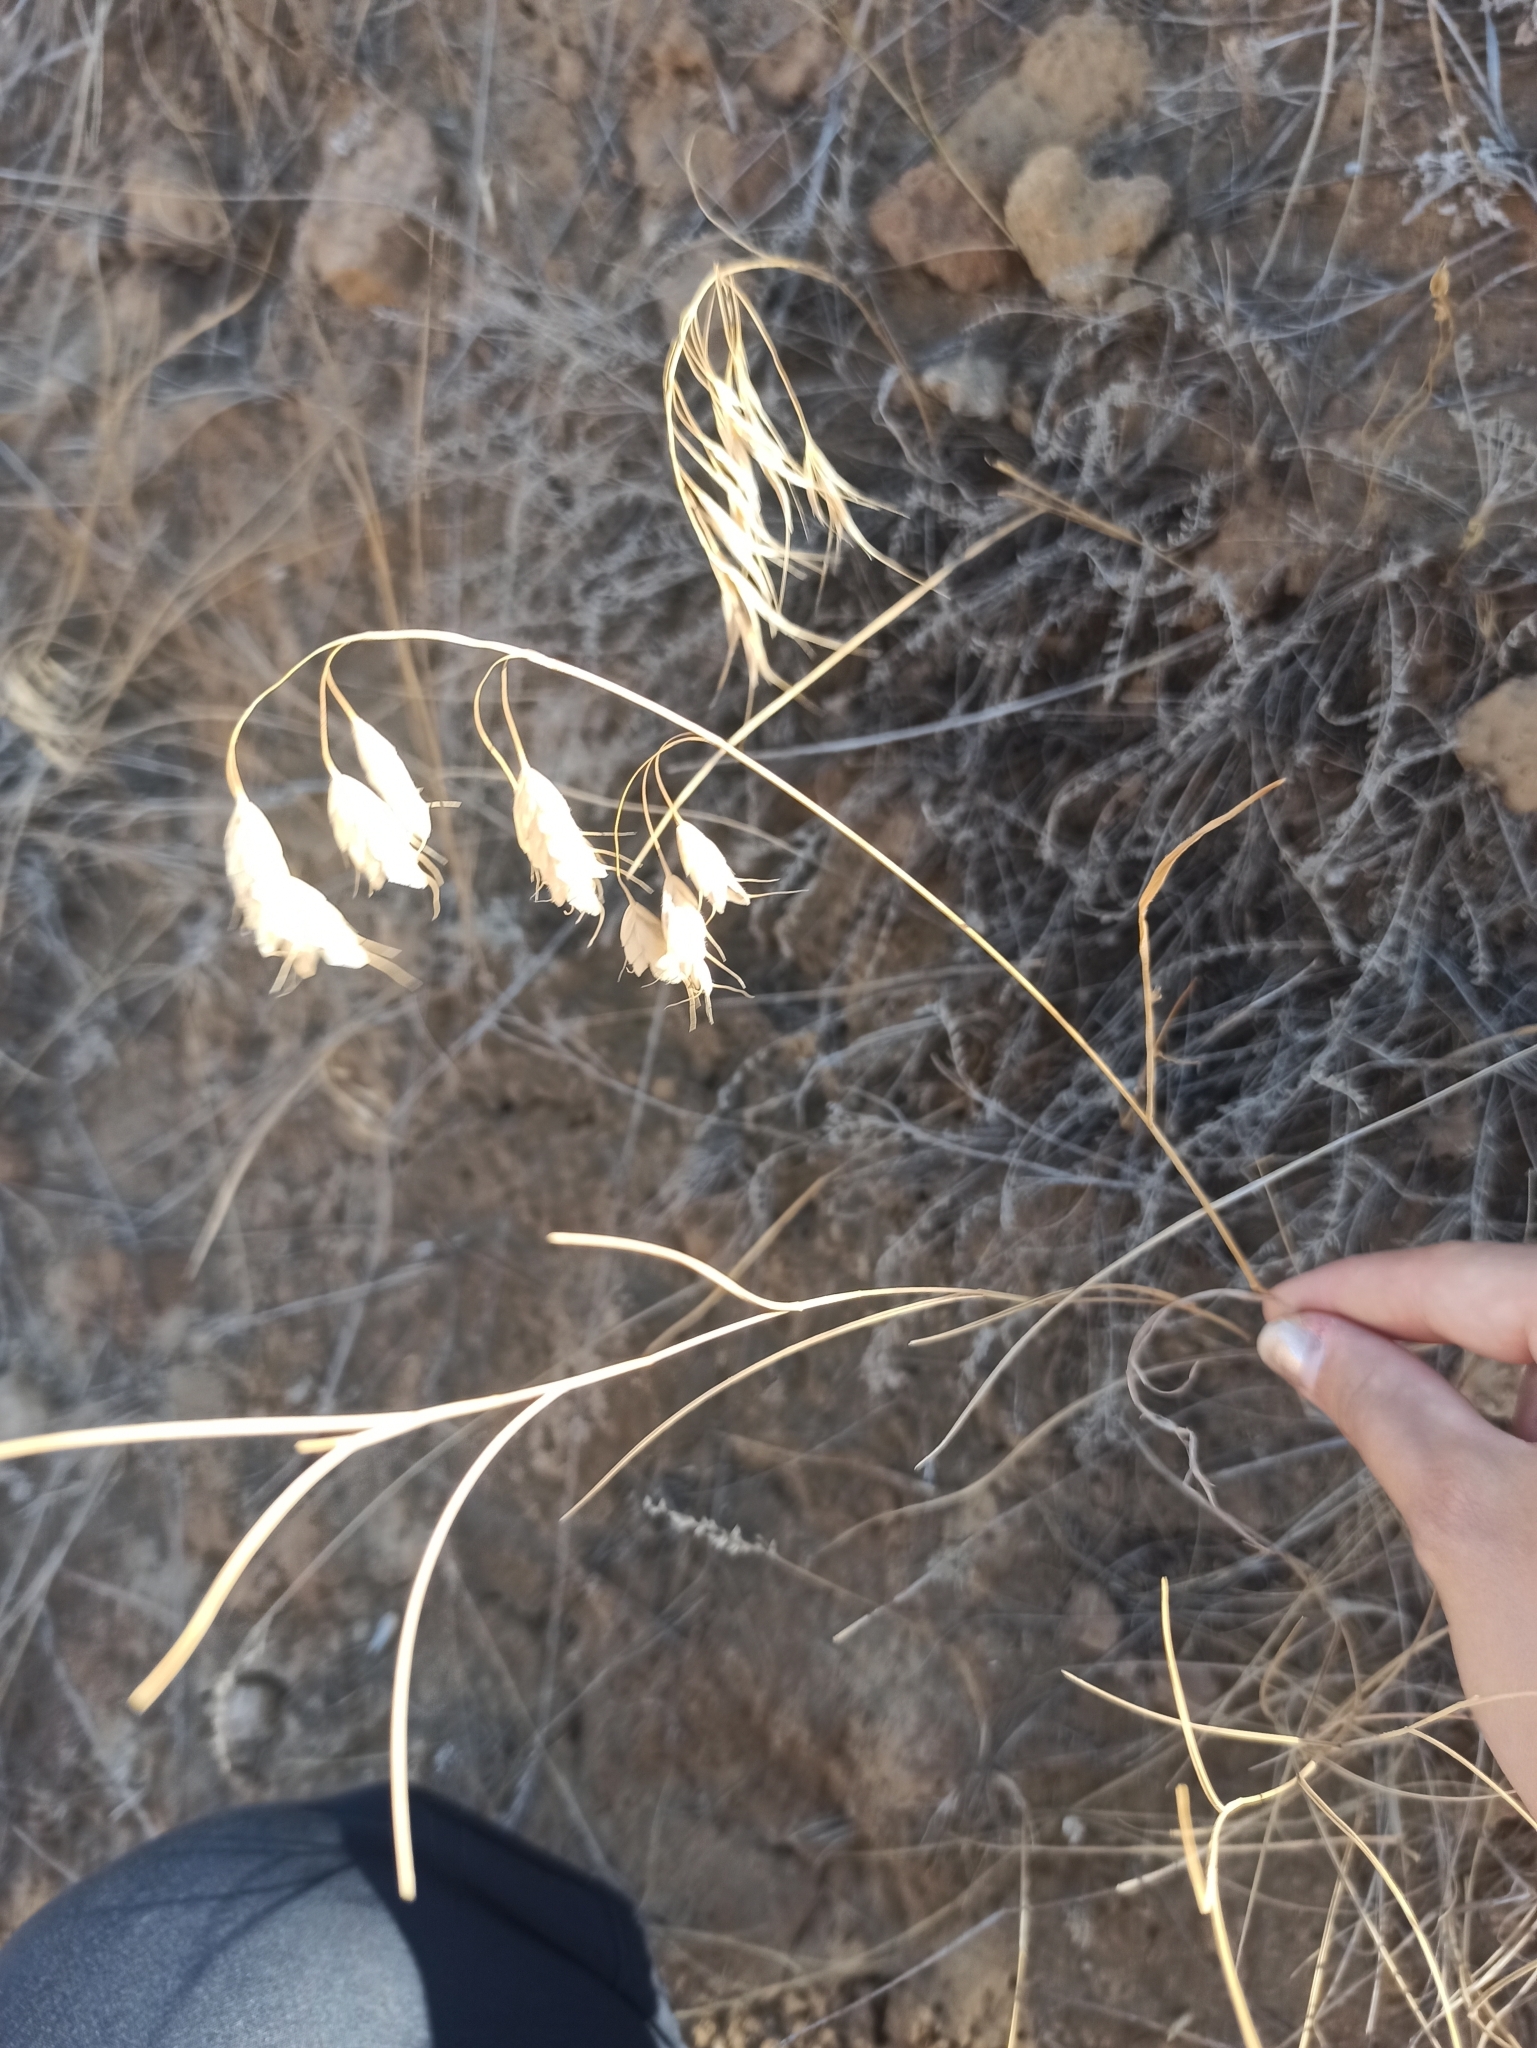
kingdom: Plantae
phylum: Tracheophyta
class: Liliopsida
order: Poales
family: Poaceae
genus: Bromus
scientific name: Bromus squarrosus
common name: Corn brome
